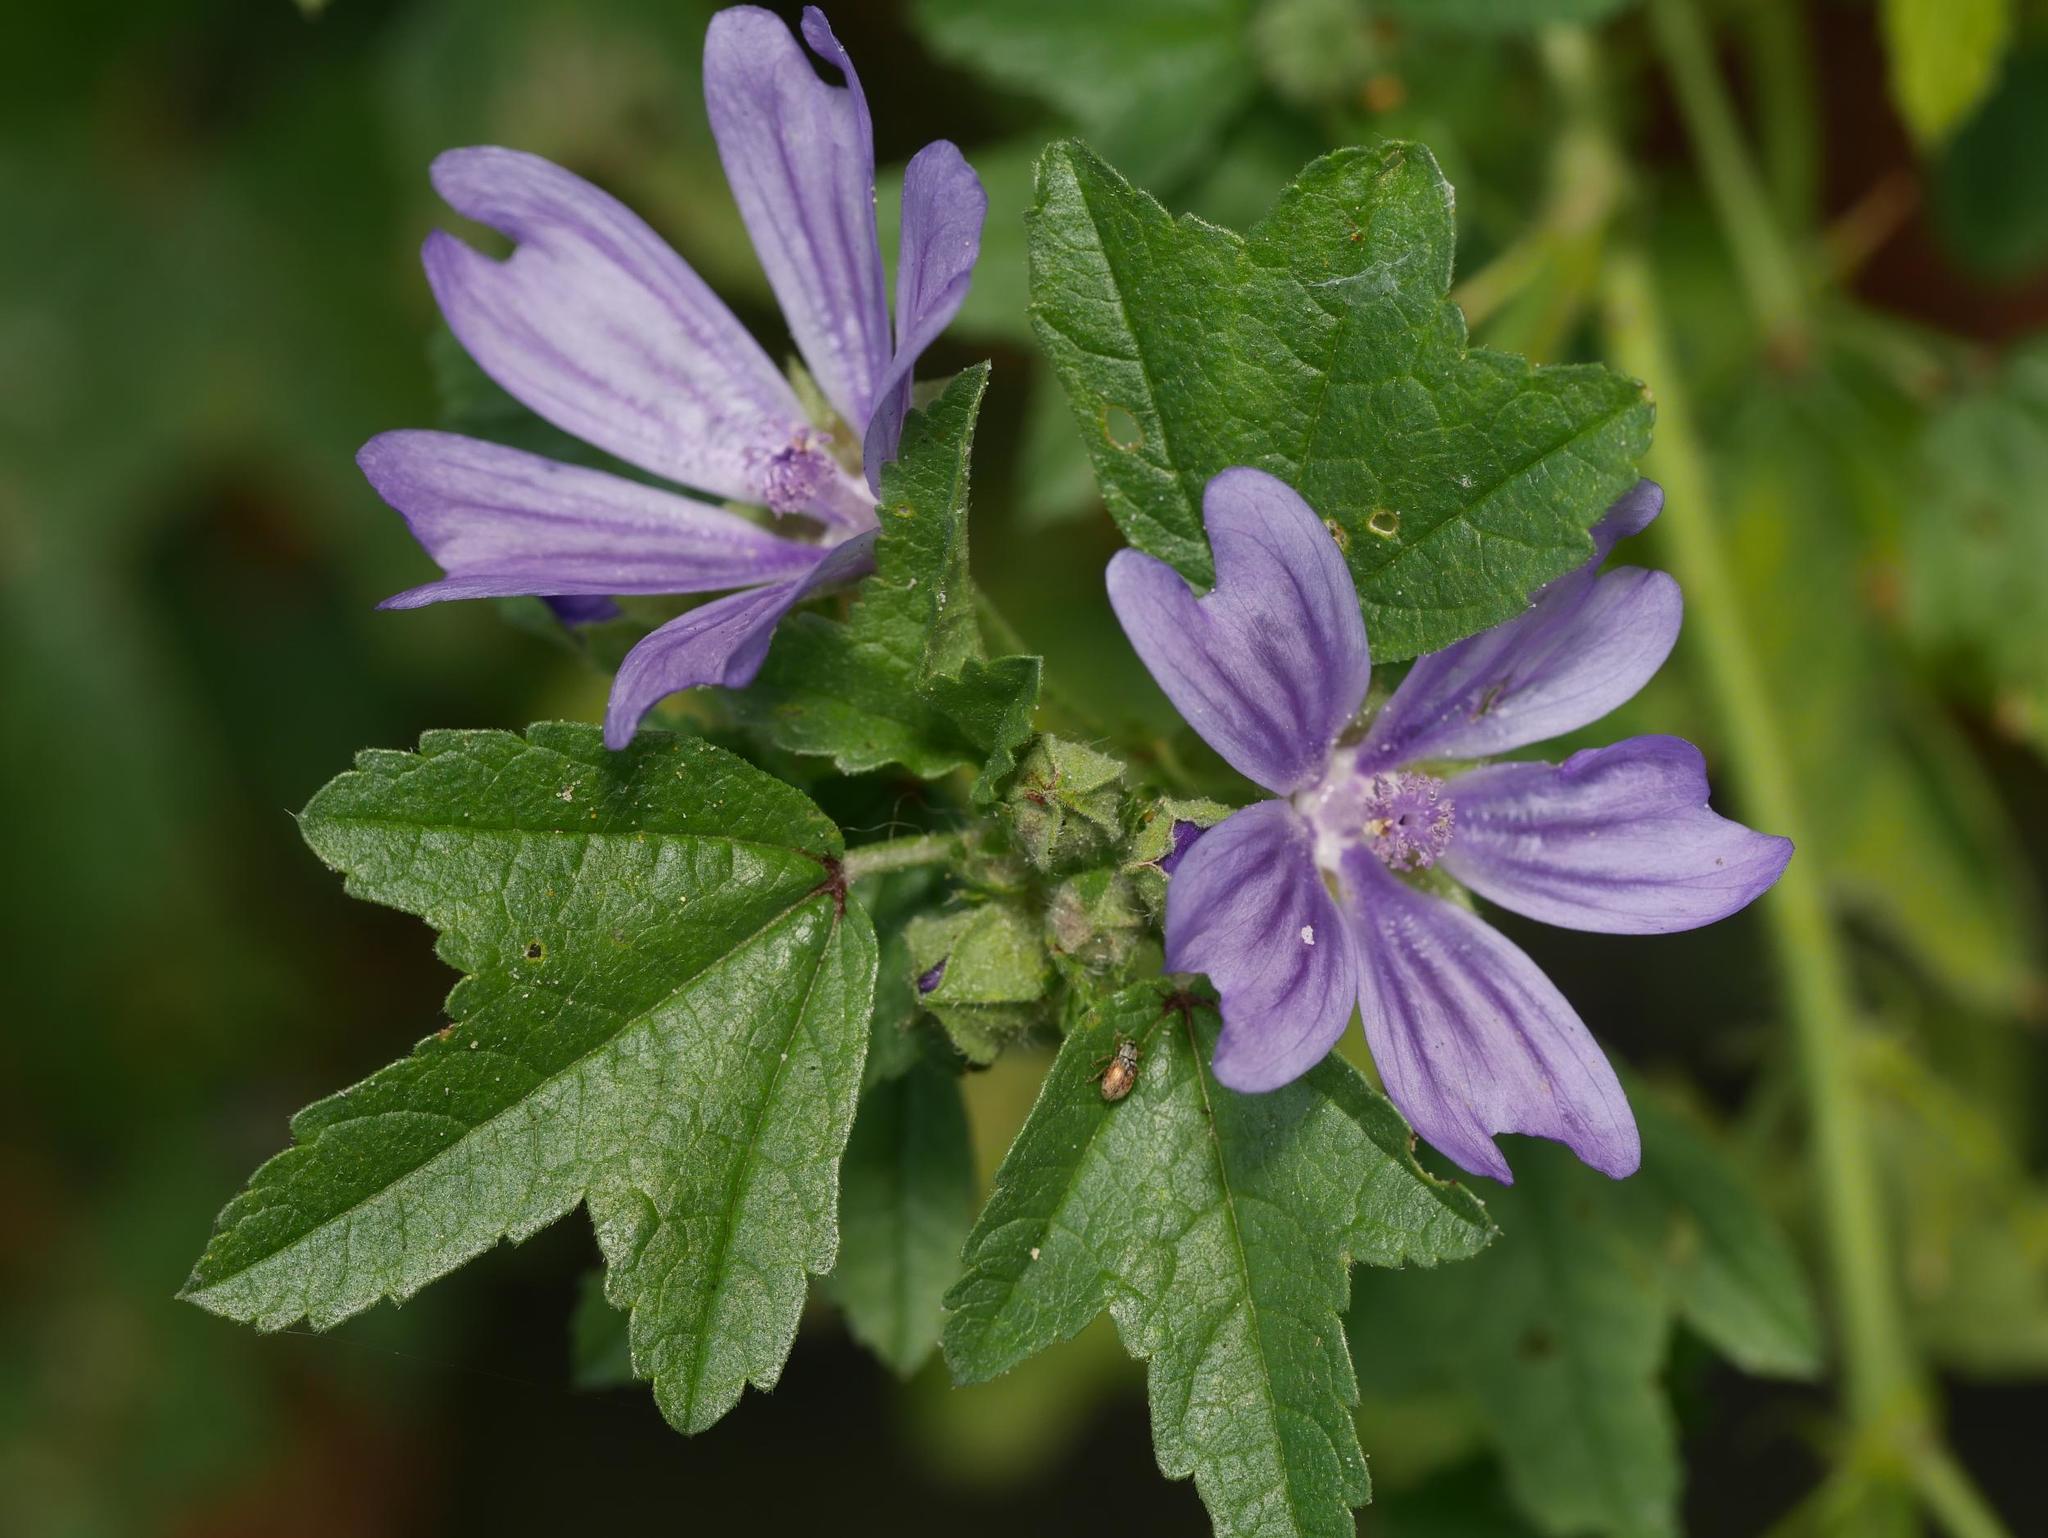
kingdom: Plantae
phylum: Tracheophyta
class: Magnoliopsida
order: Malvales
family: Malvaceae
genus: Malva
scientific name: Malva sylvestris
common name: Common mallow
